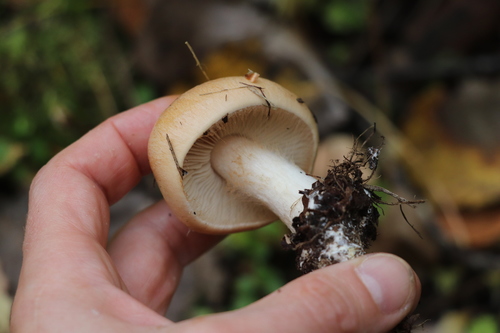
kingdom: Fungi
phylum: Basidiomycota
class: Agaricomycetes
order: Agaricales
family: Cortinariaceae
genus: Thaxterogaster
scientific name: Thaxterogaster talus
